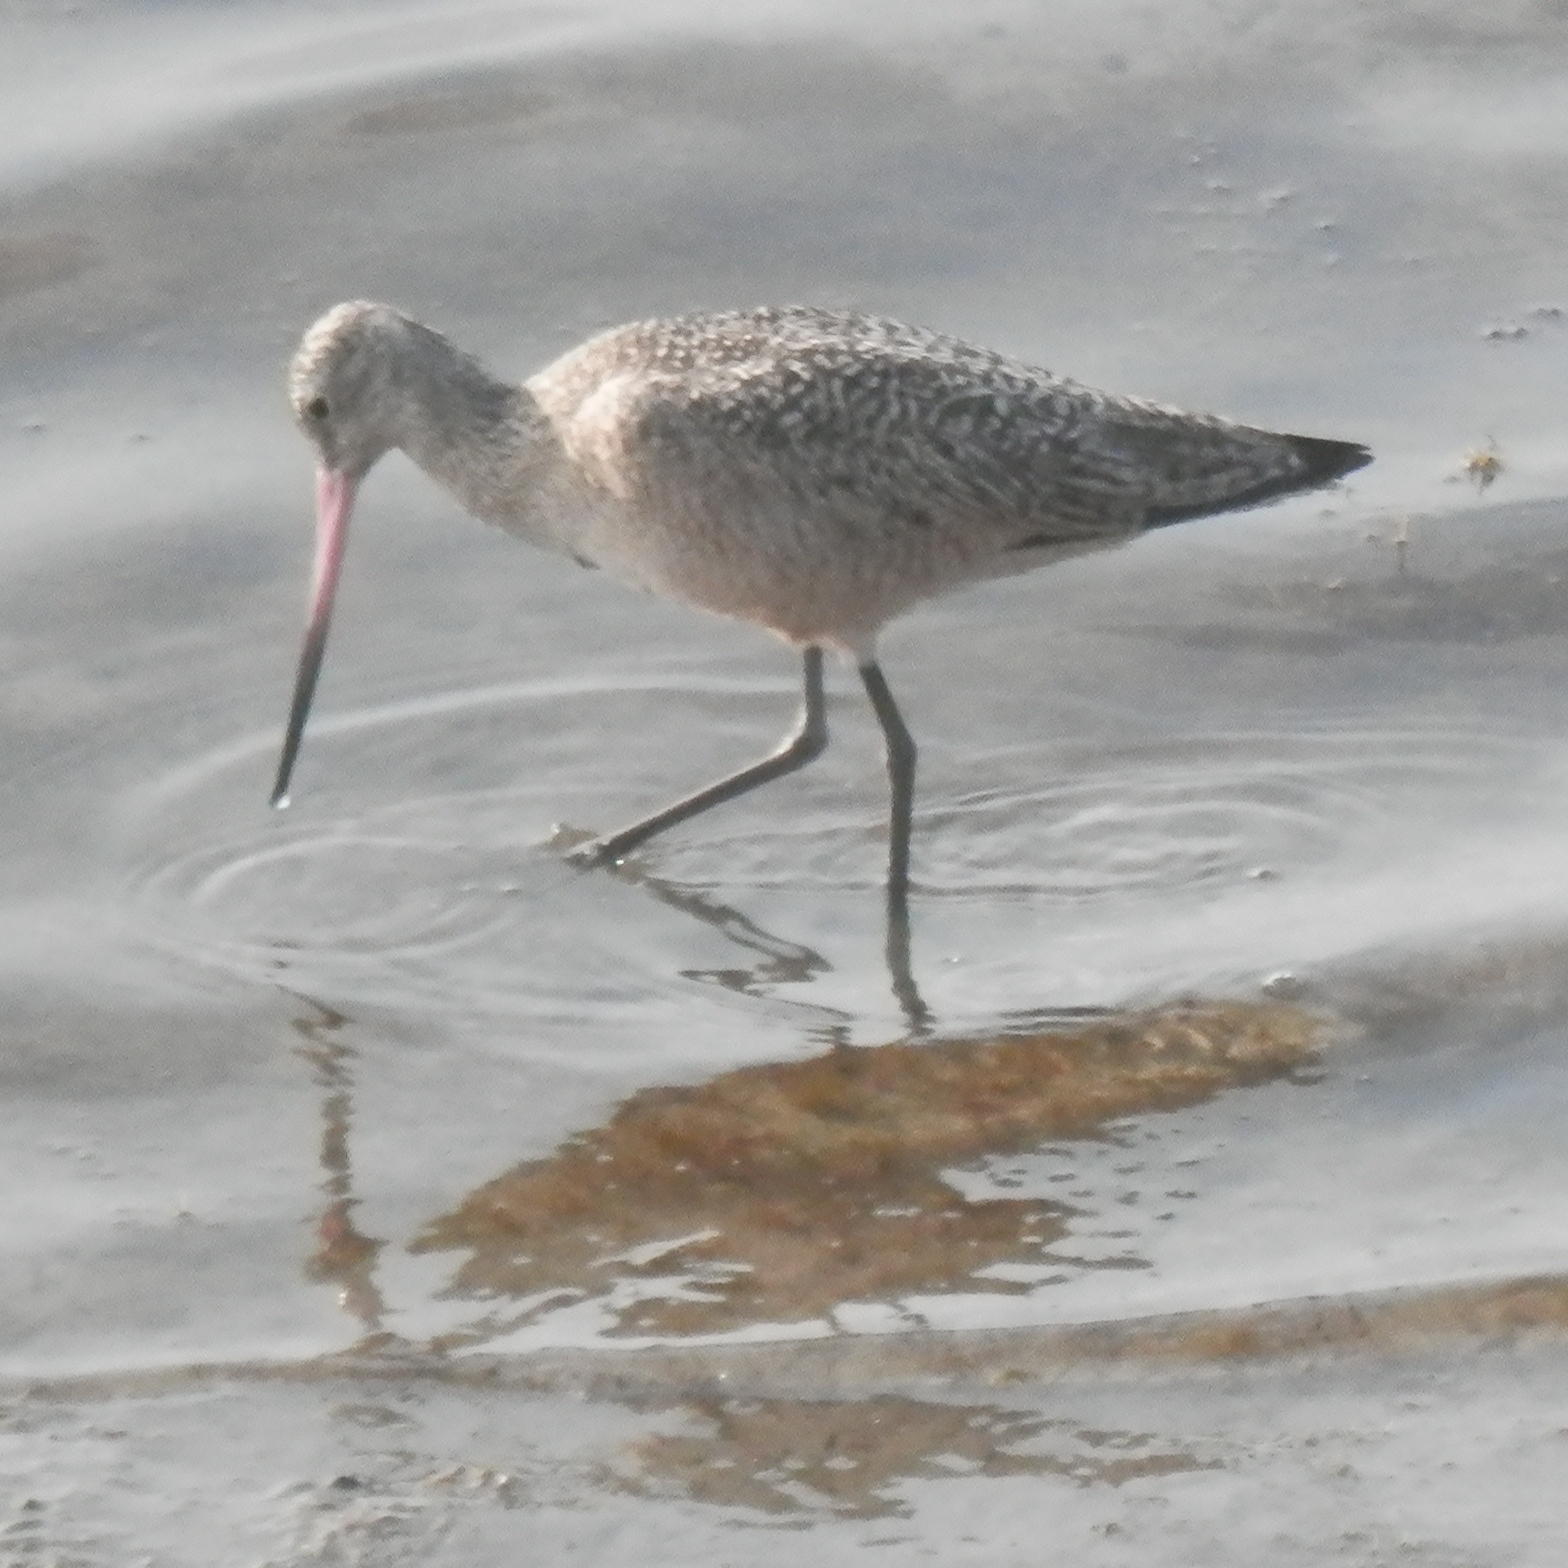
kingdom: Animalia
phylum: Chordata
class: Aves
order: Charadriiformes
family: Scolopacidae
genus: Limosa
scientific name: Limosa fedoa
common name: Marbled godwit
